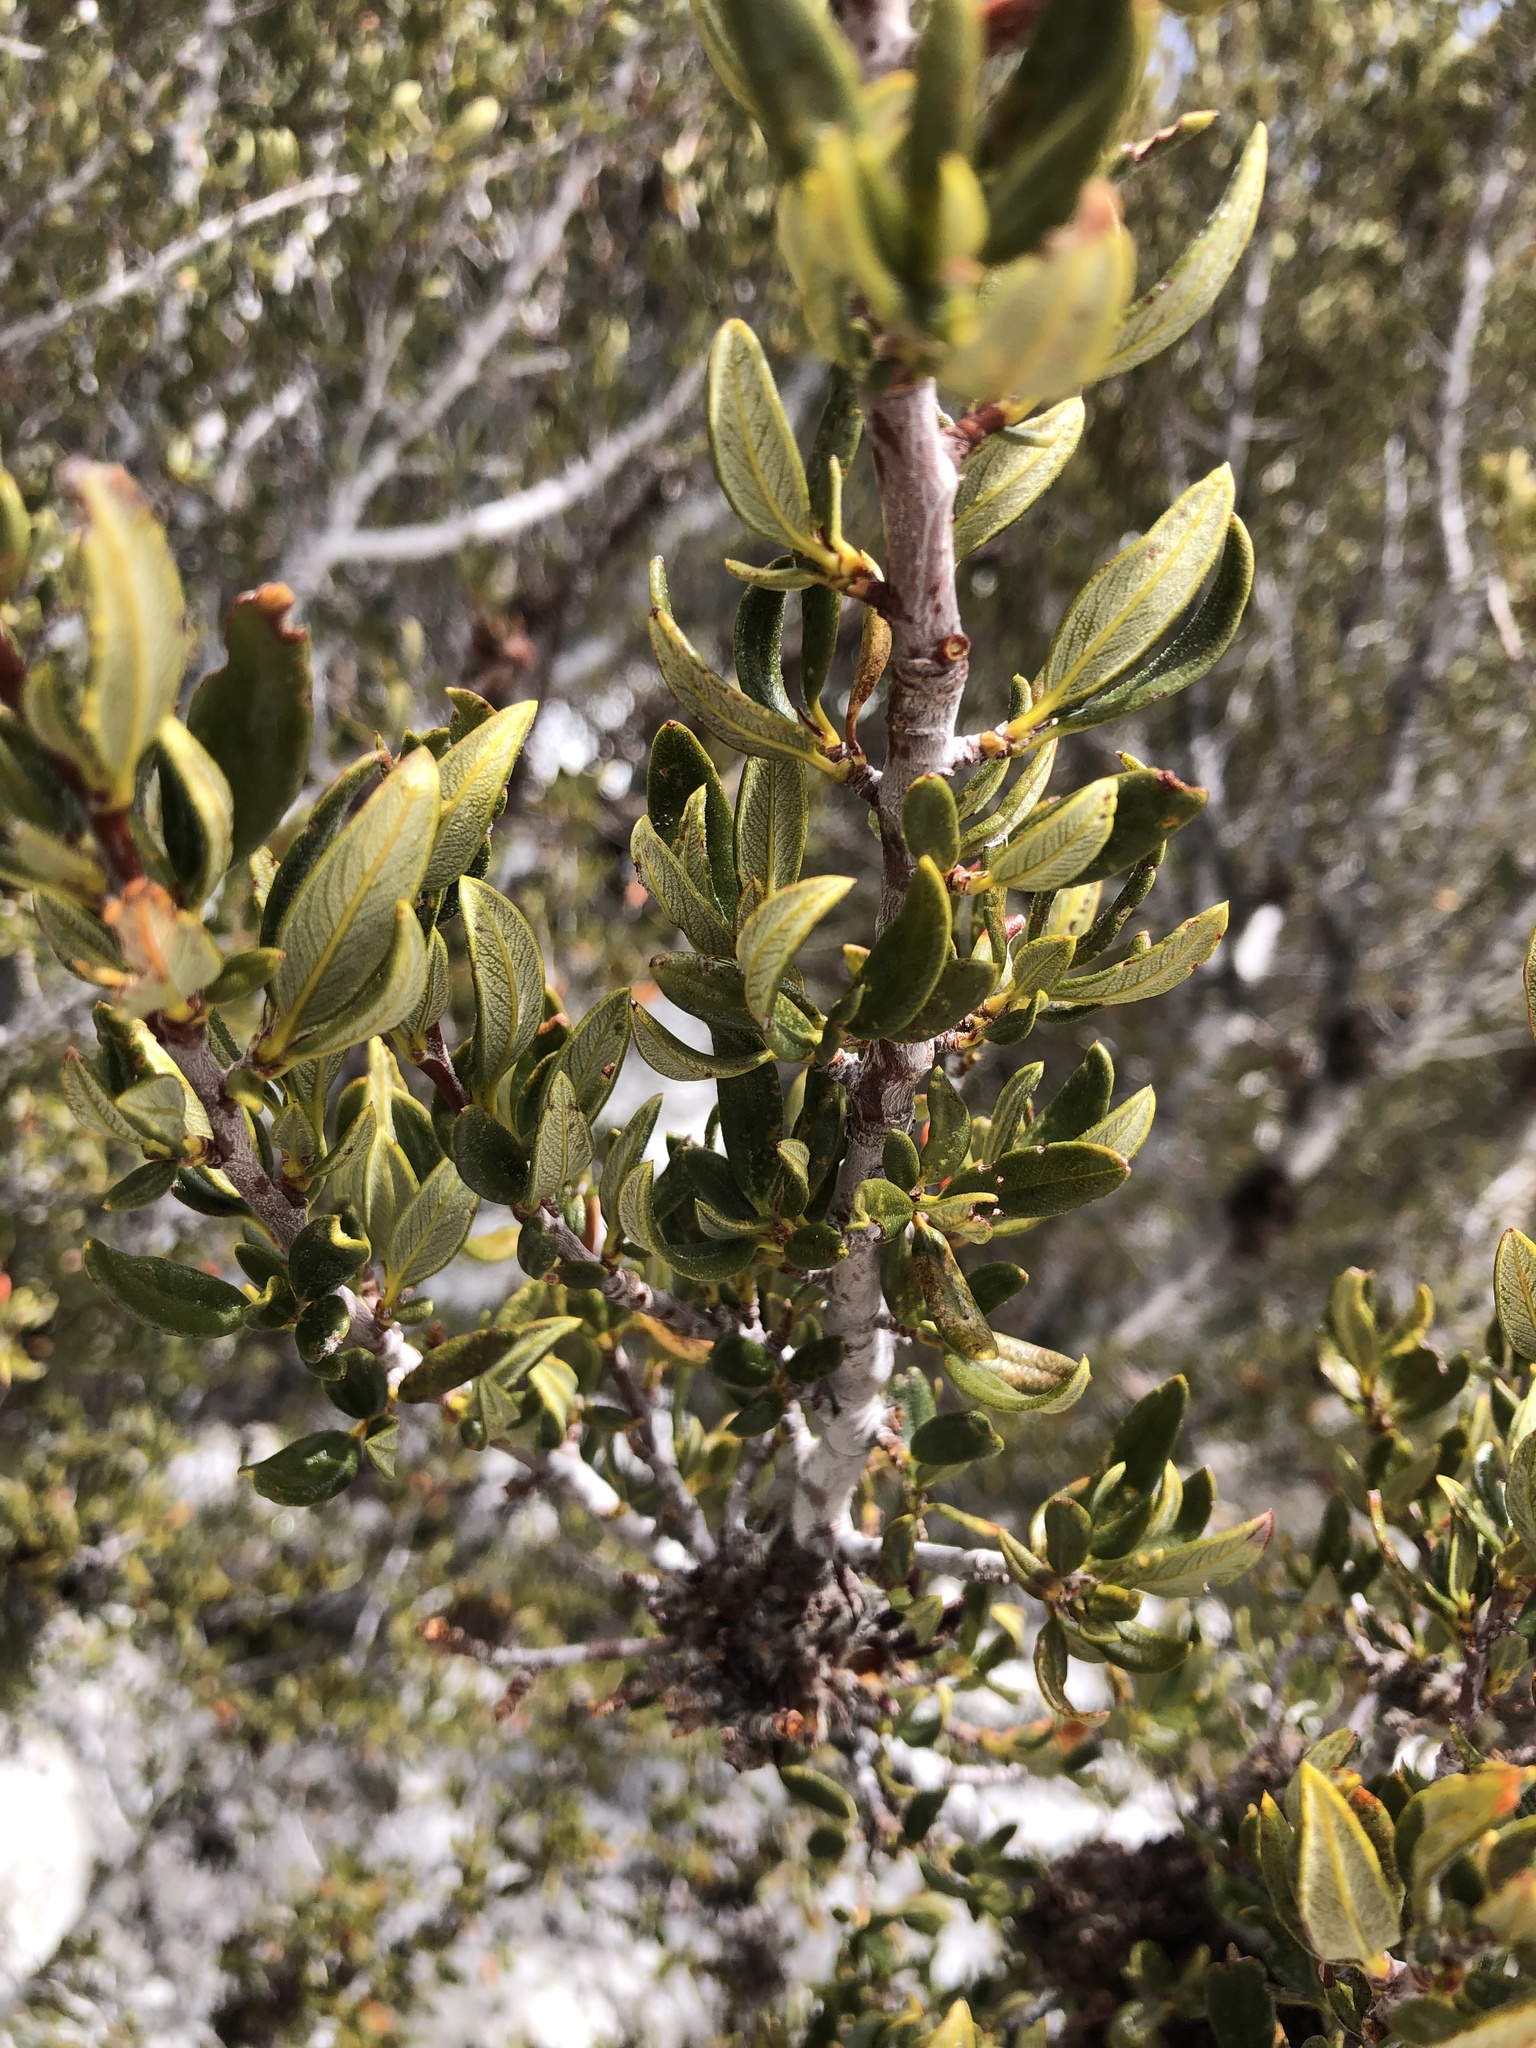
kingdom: Plantae
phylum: Tracheophyta
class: Magnoliopsida
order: Rosales
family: Rosaceae
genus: Cercocarpus
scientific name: Cercocarpus ledifolius
